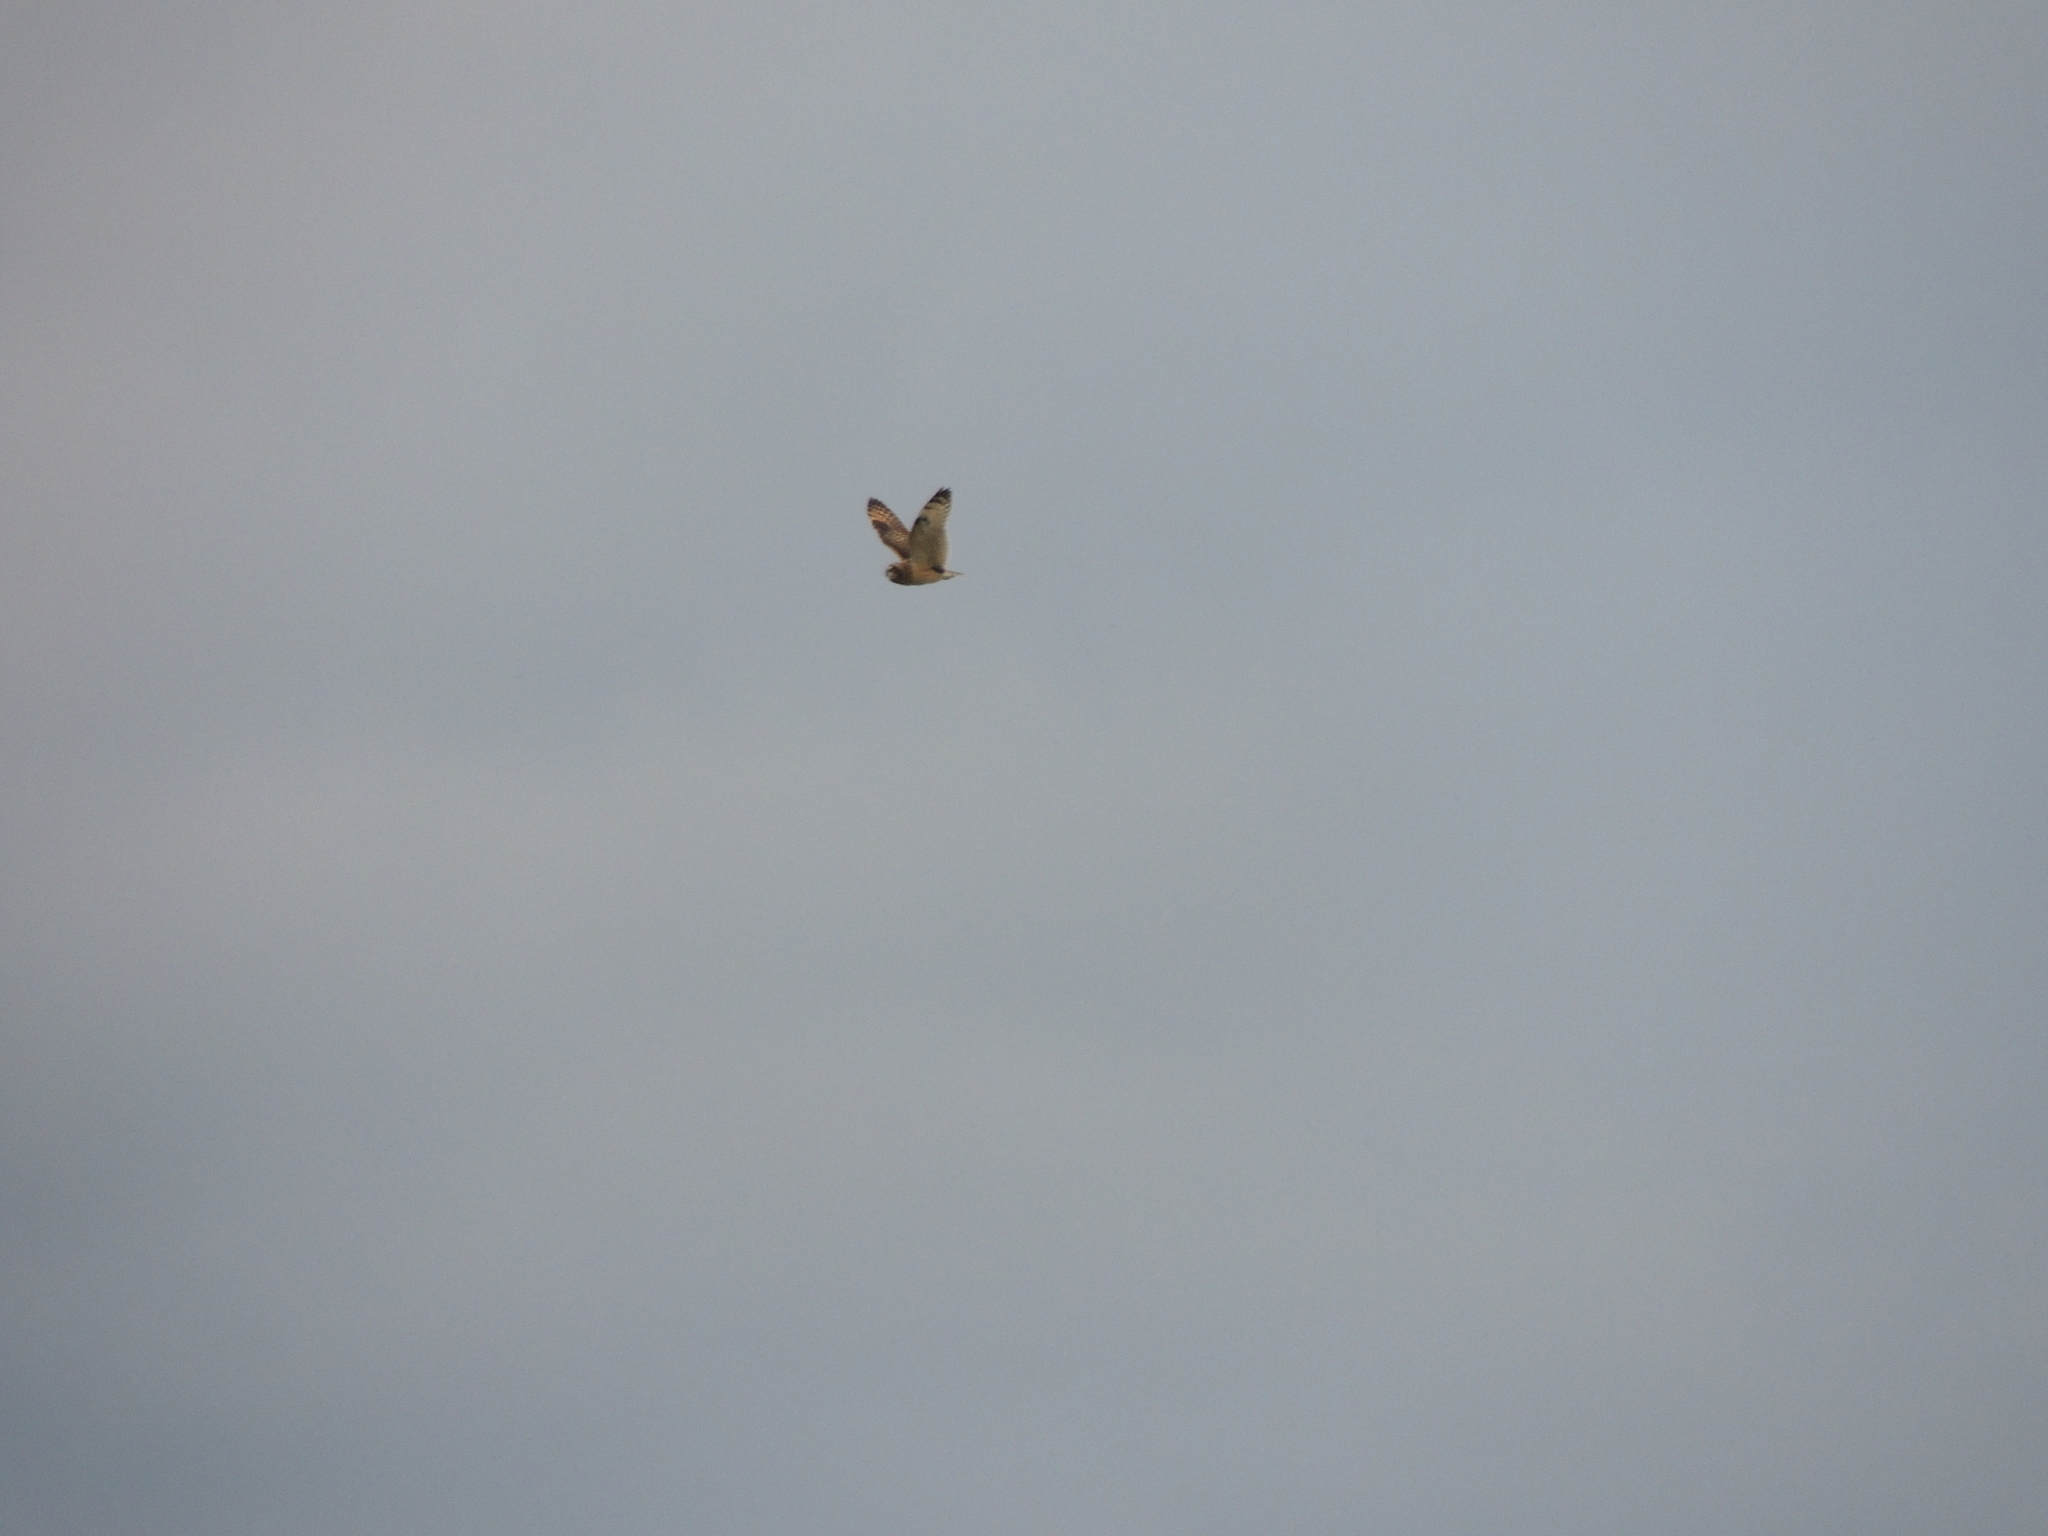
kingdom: Animalia
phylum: Chordata
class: Aves
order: Strigiformes
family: Strigidae
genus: Asio
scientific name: Asio flammeus
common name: Short-eared owl
